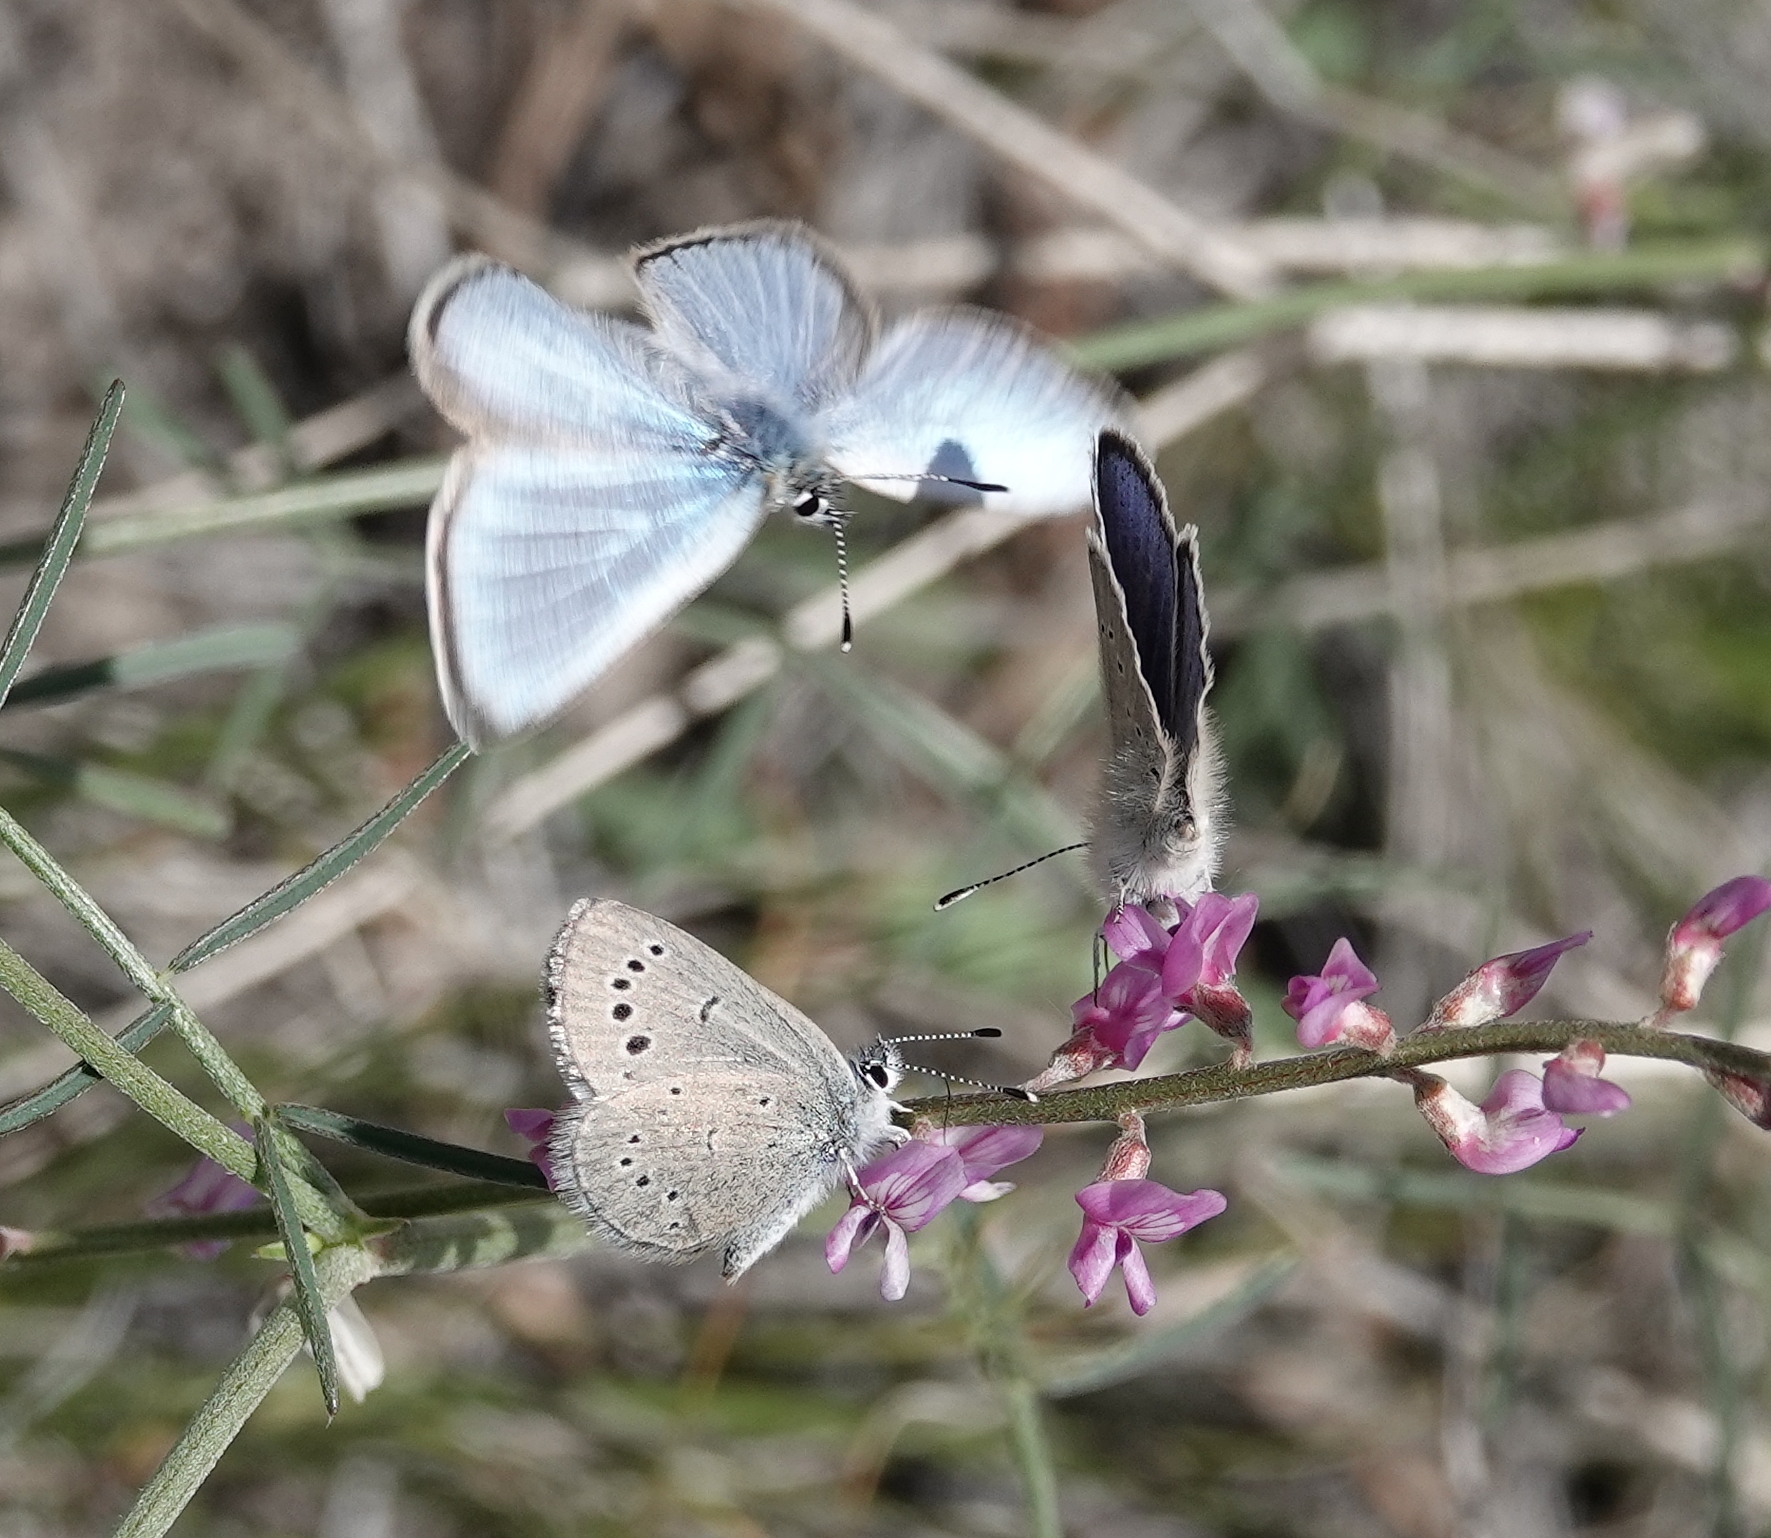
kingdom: Animalia
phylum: Arthropoda
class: Insecta
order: Lepidoptera
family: Lycaenidae
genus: Glaucopsyche
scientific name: Glaucopsyche lygdamus
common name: Silvery blue
